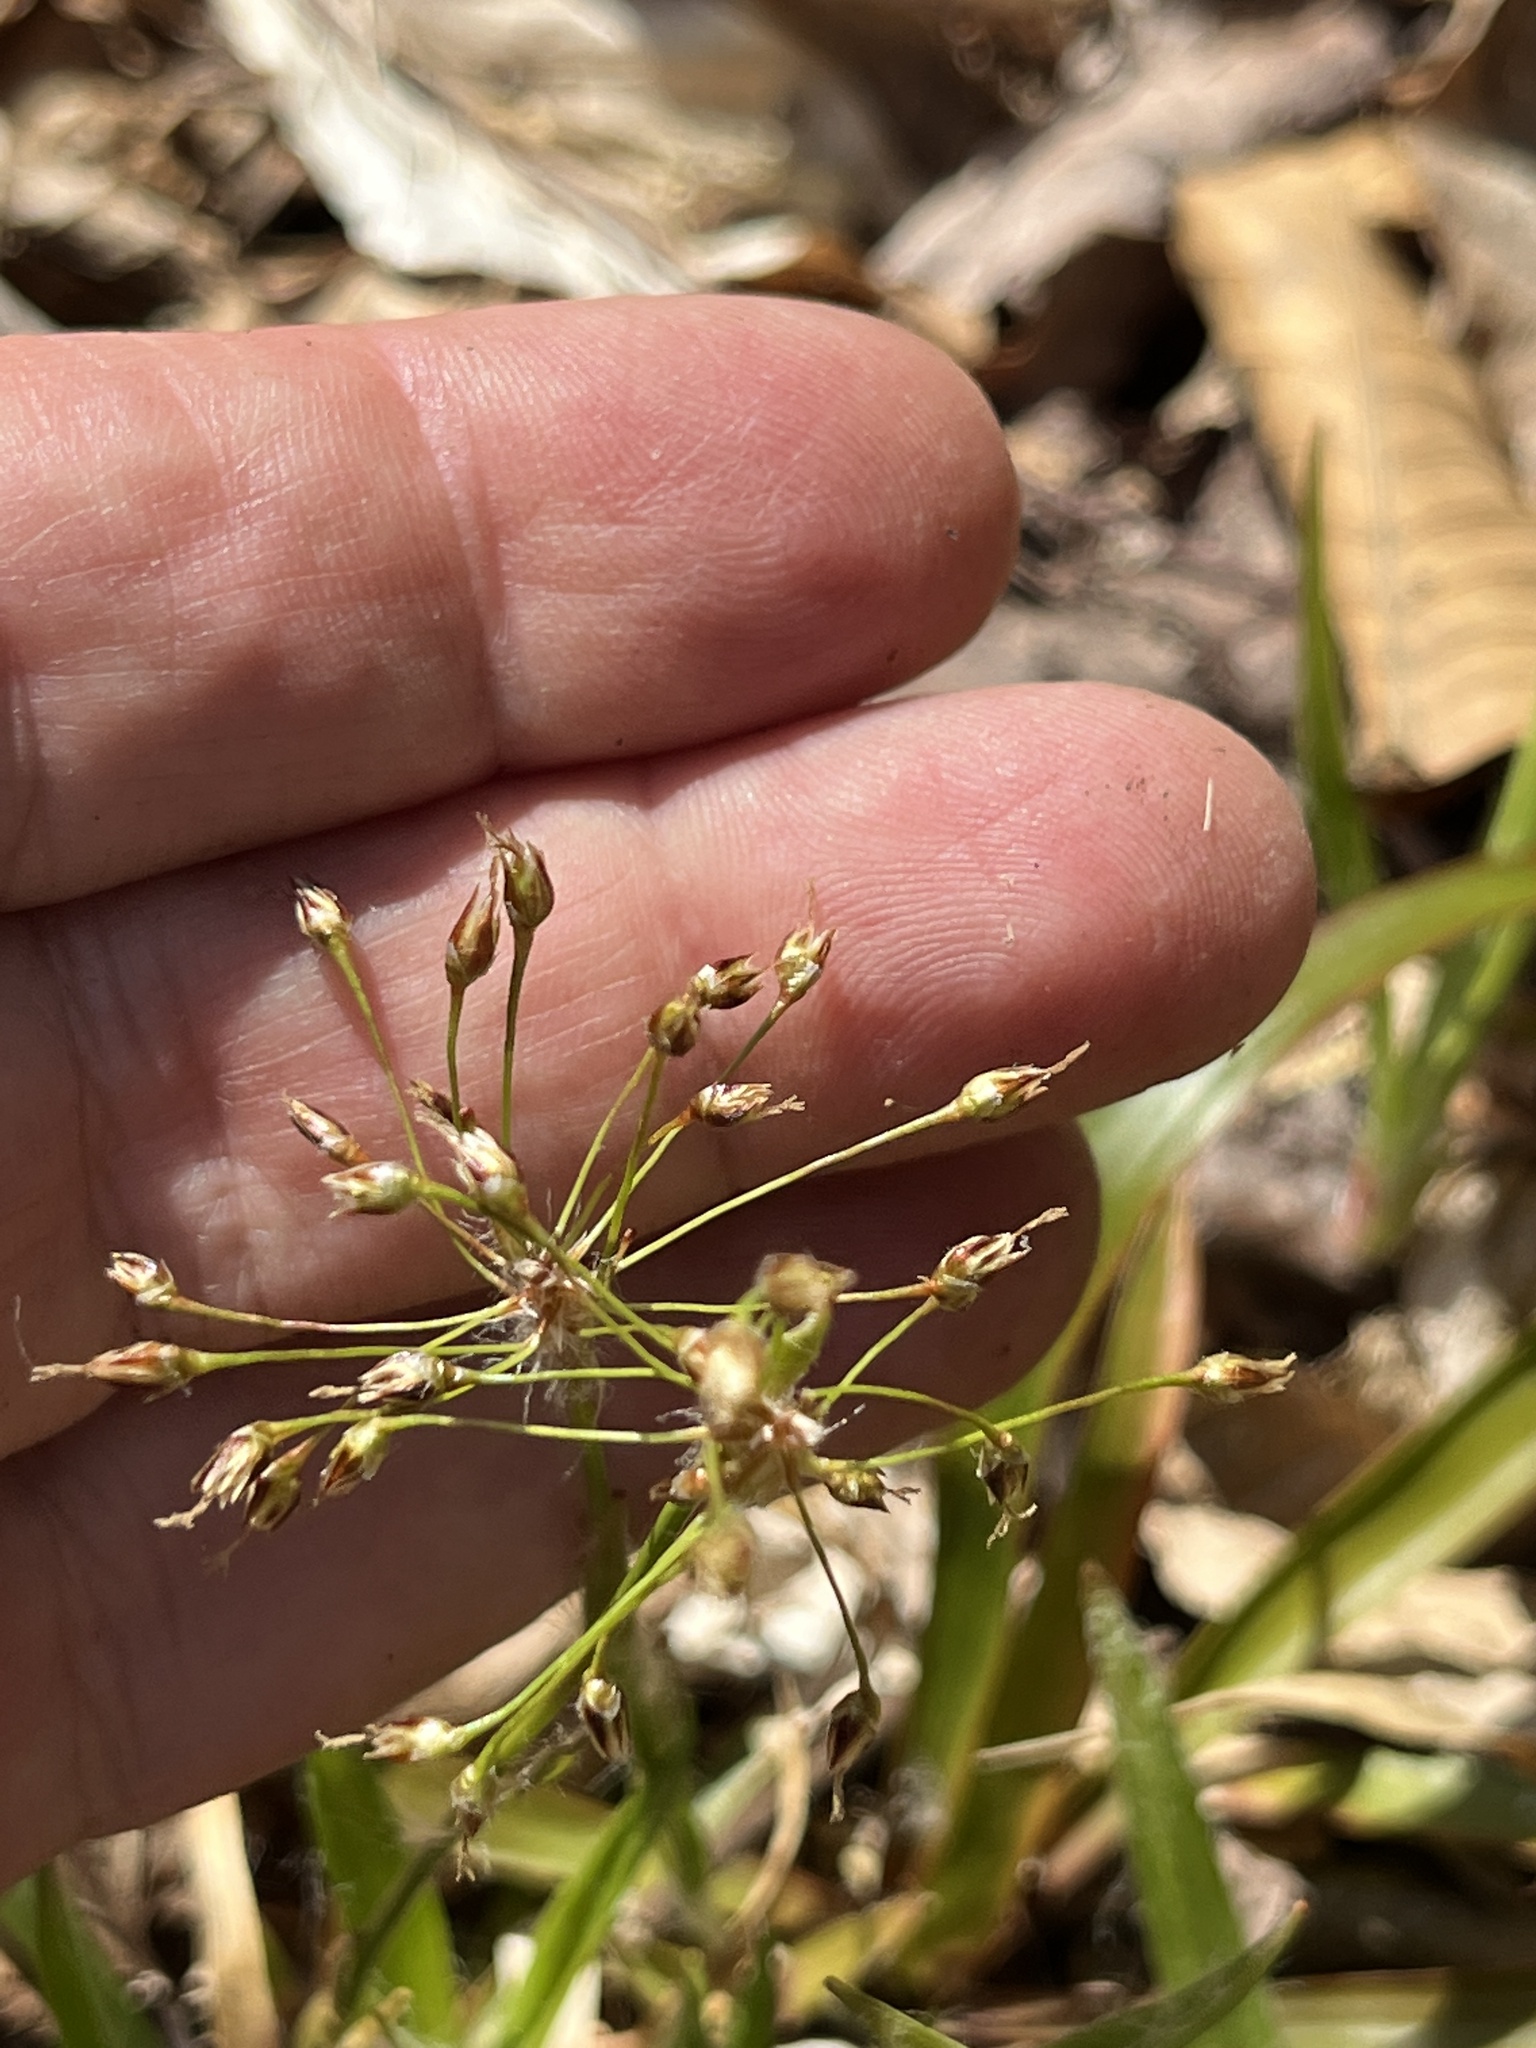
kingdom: Plantae
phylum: Tracheophyta
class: Liliopsida
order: Poales
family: Juncaceae
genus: Luzula
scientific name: Luzula acuminata
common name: Hairy woodrush
